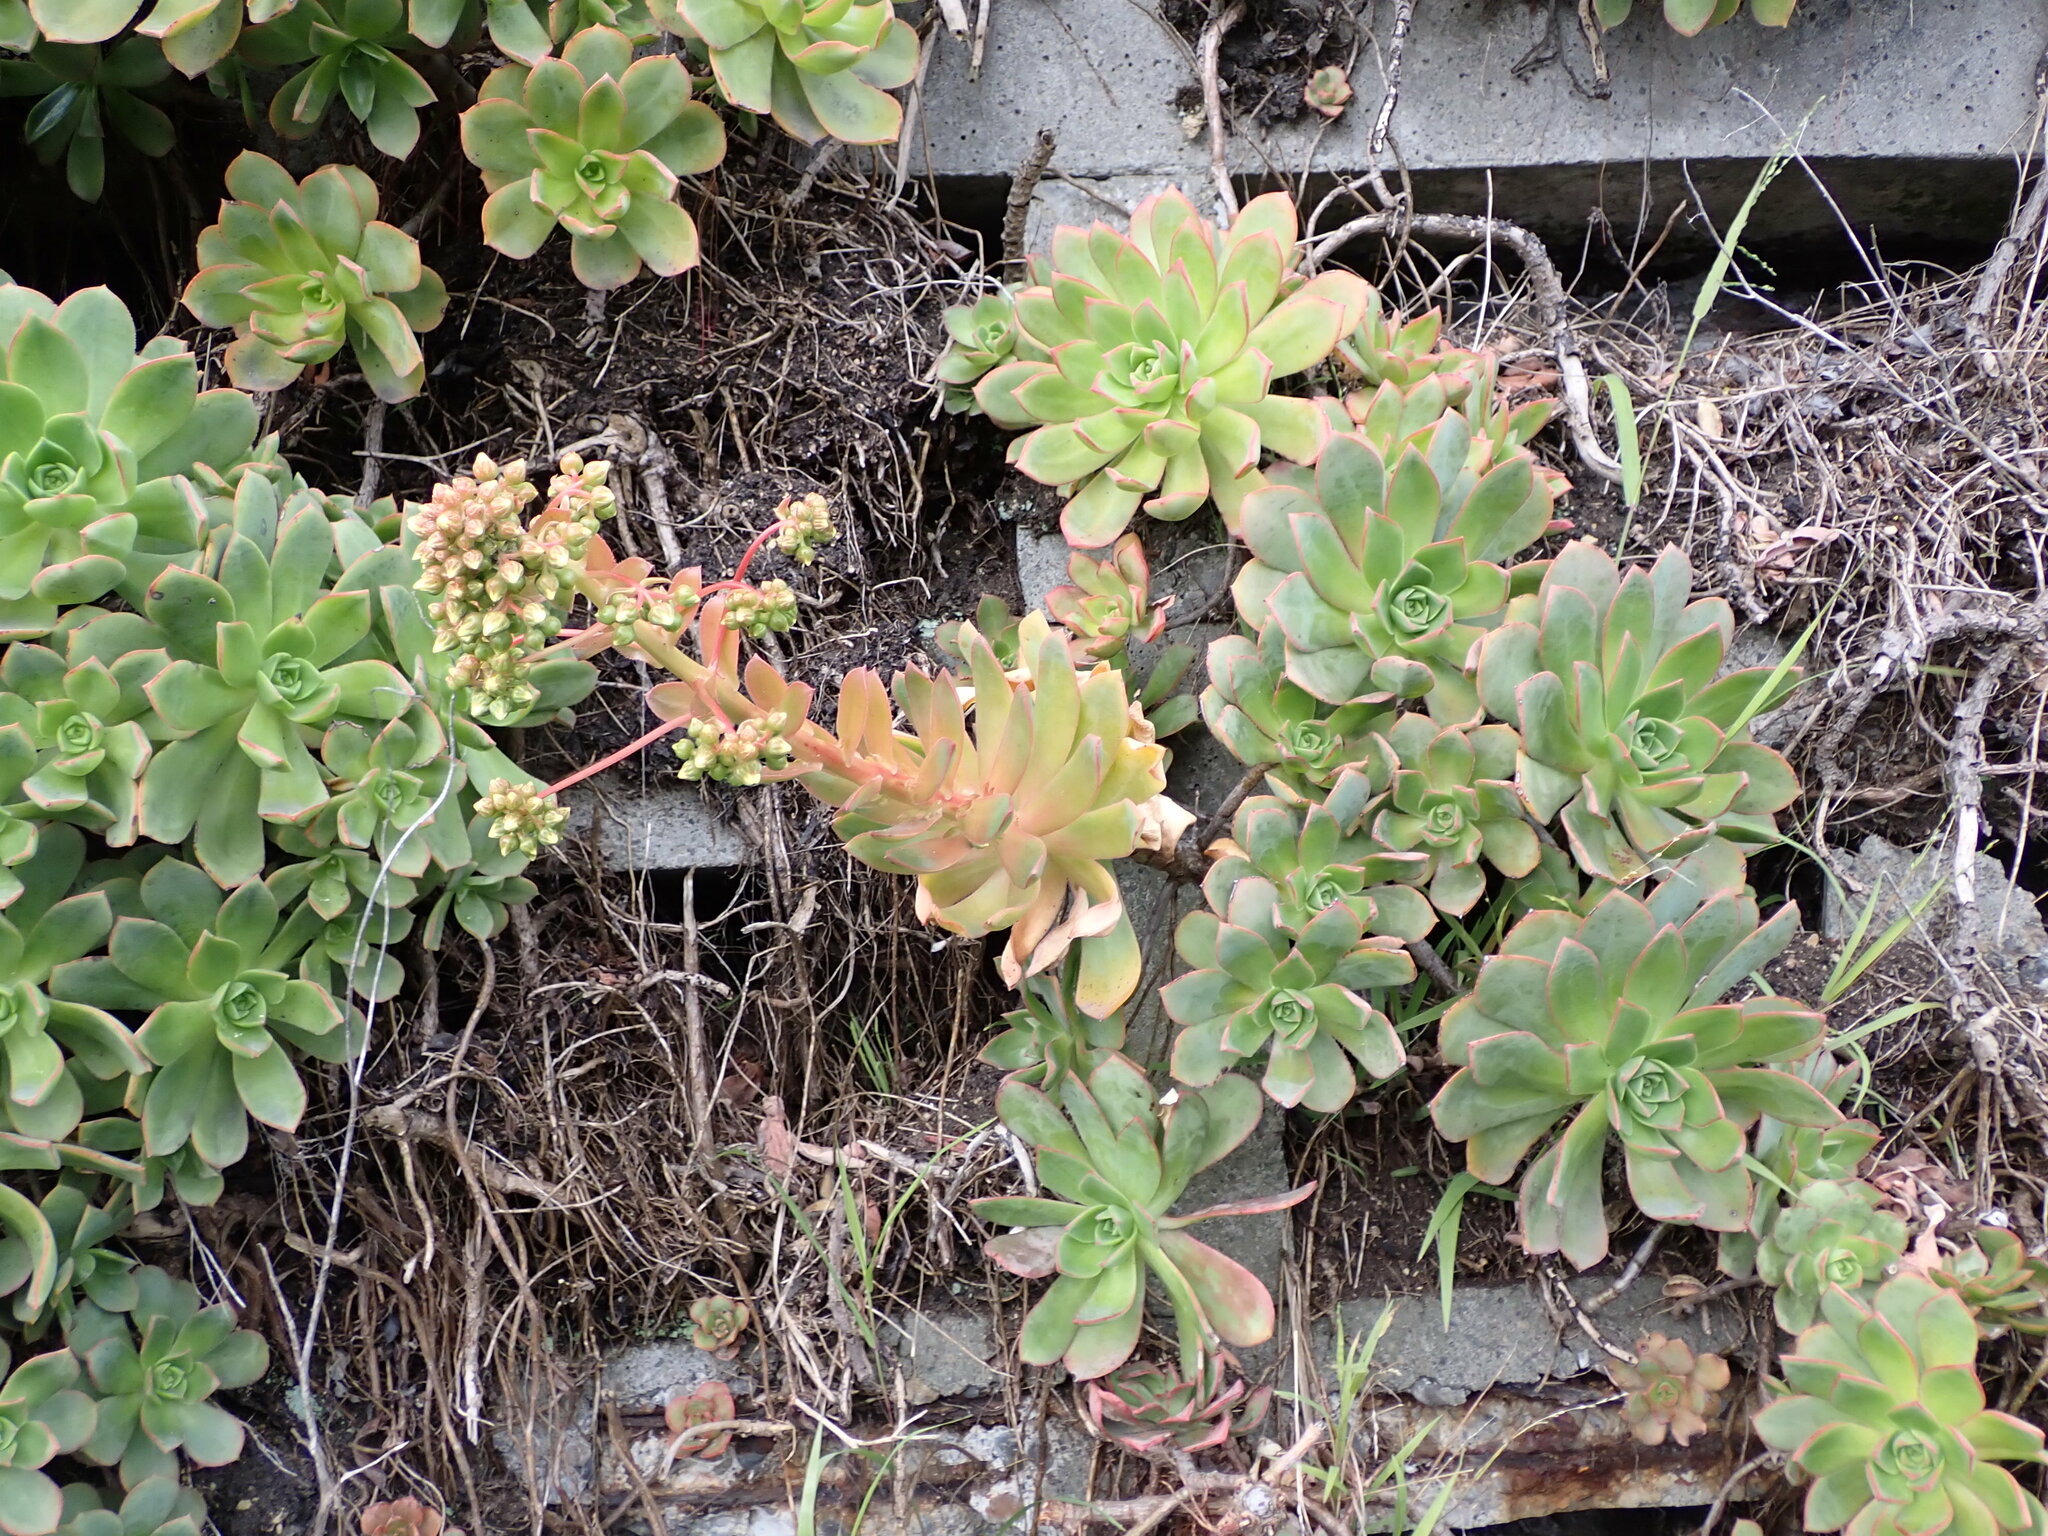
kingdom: Plantae
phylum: Tracheophyta
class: Magnoliopsida
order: Saxifragales
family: Crassulaceae
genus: Aeonium
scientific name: Aeonium haworthii
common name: Haworth's aeonium
